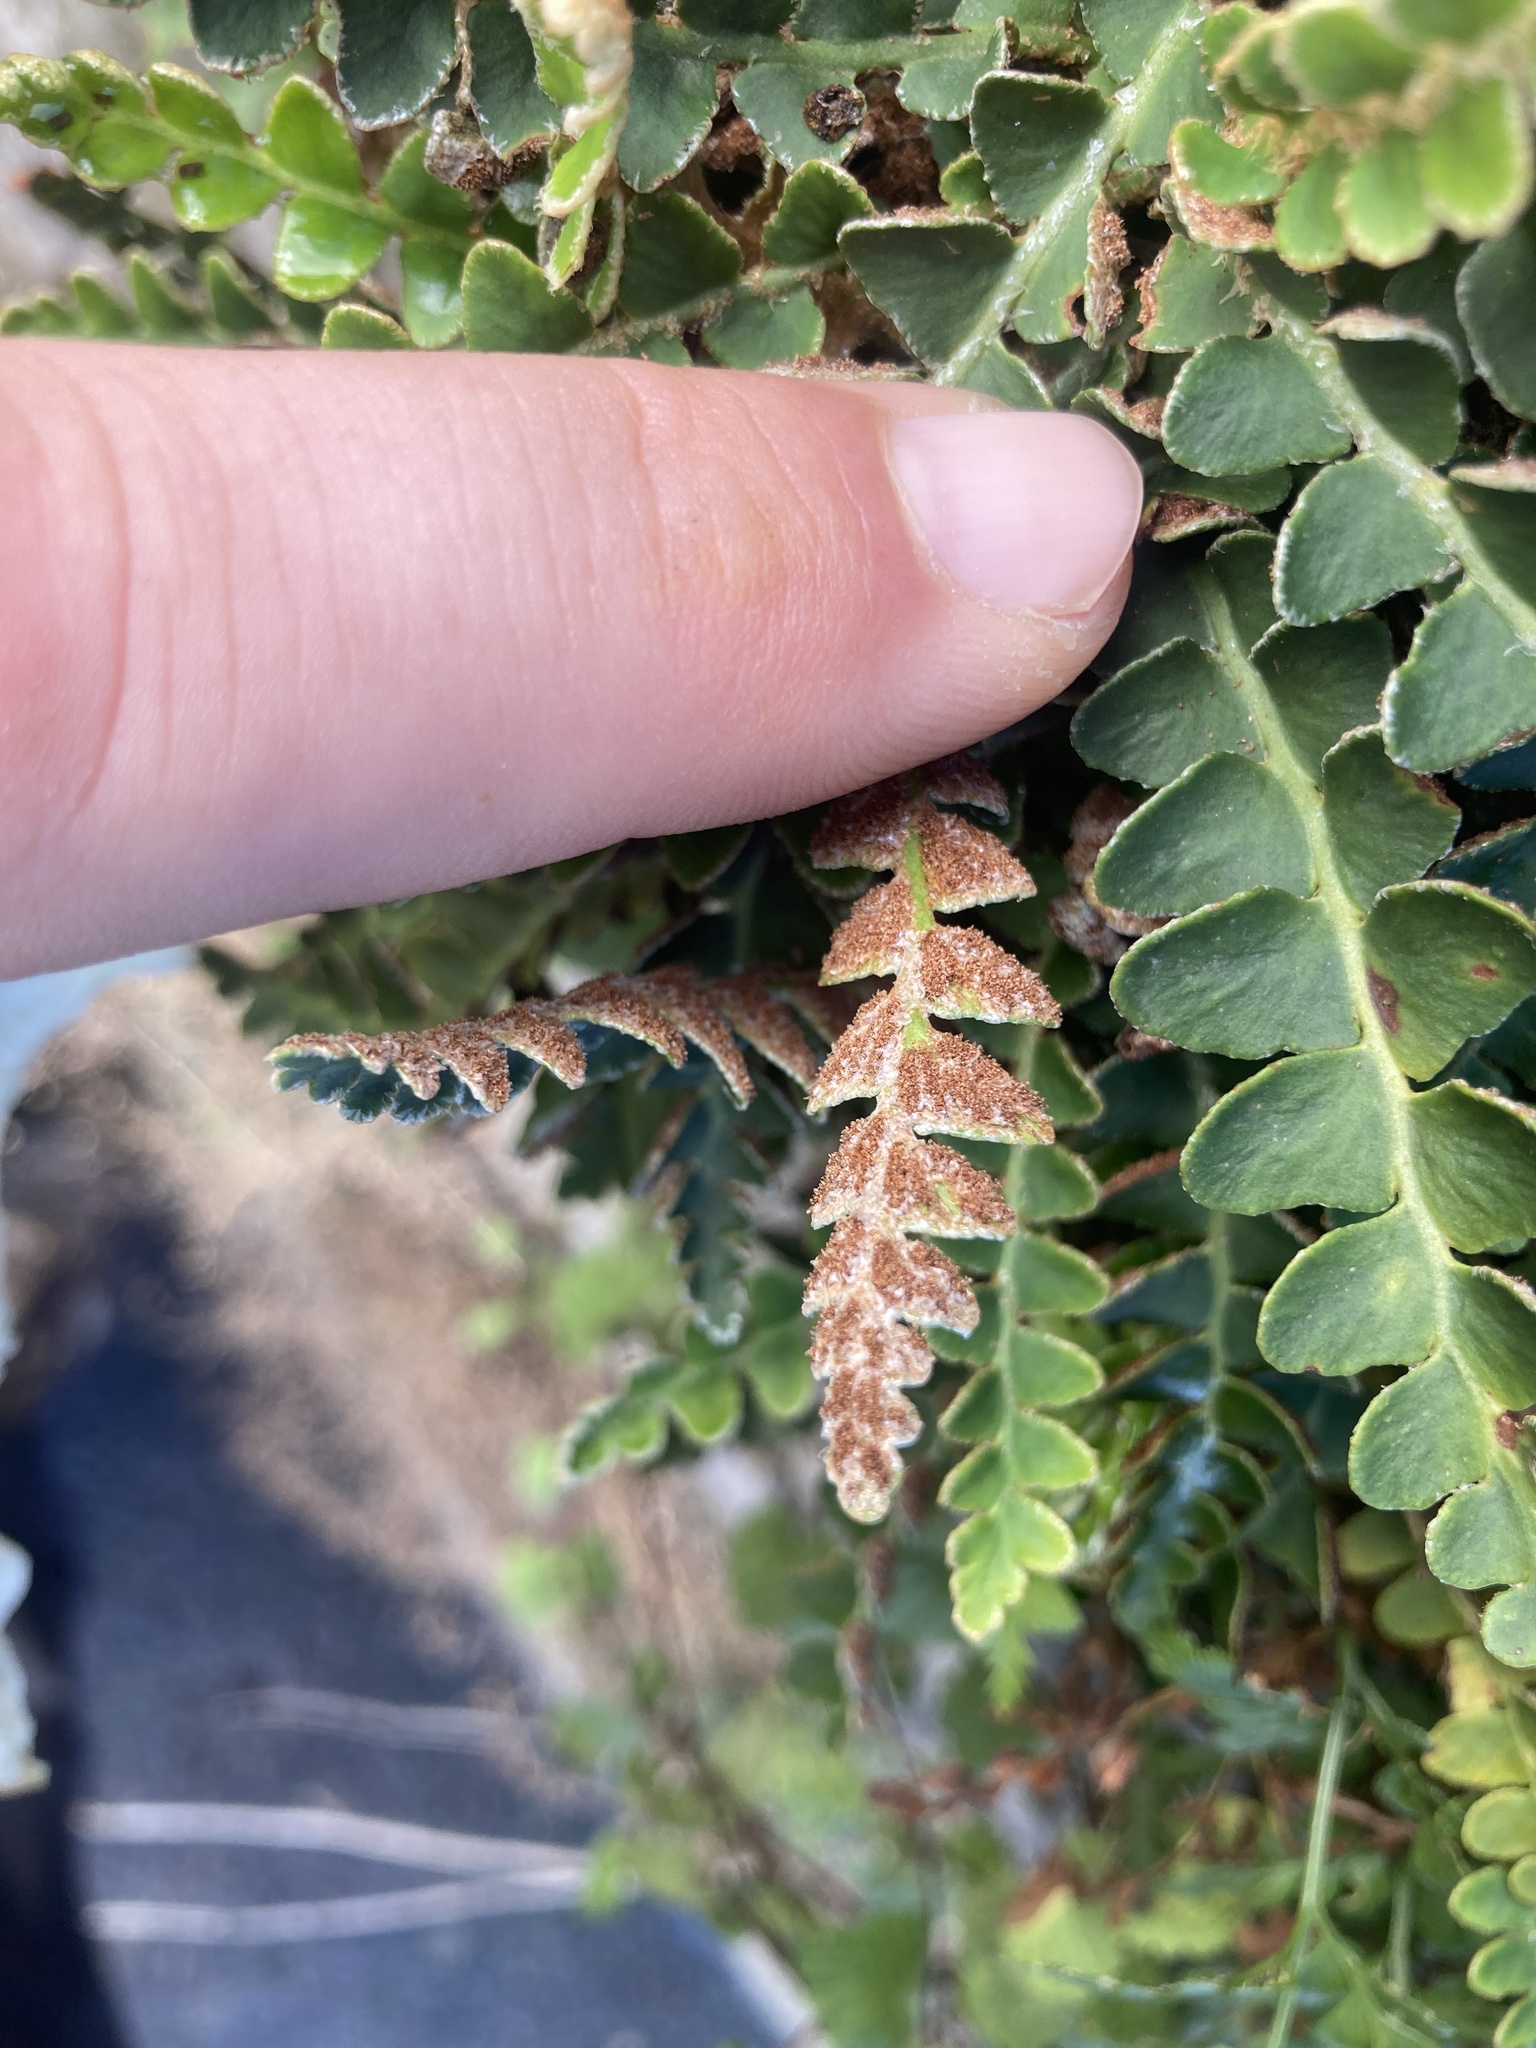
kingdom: Plantae
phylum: Tracheophyta
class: Polypodiopsida
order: Polypodiales
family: Aspleniaceae
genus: Asplenium
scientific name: Asplenium ceterach
